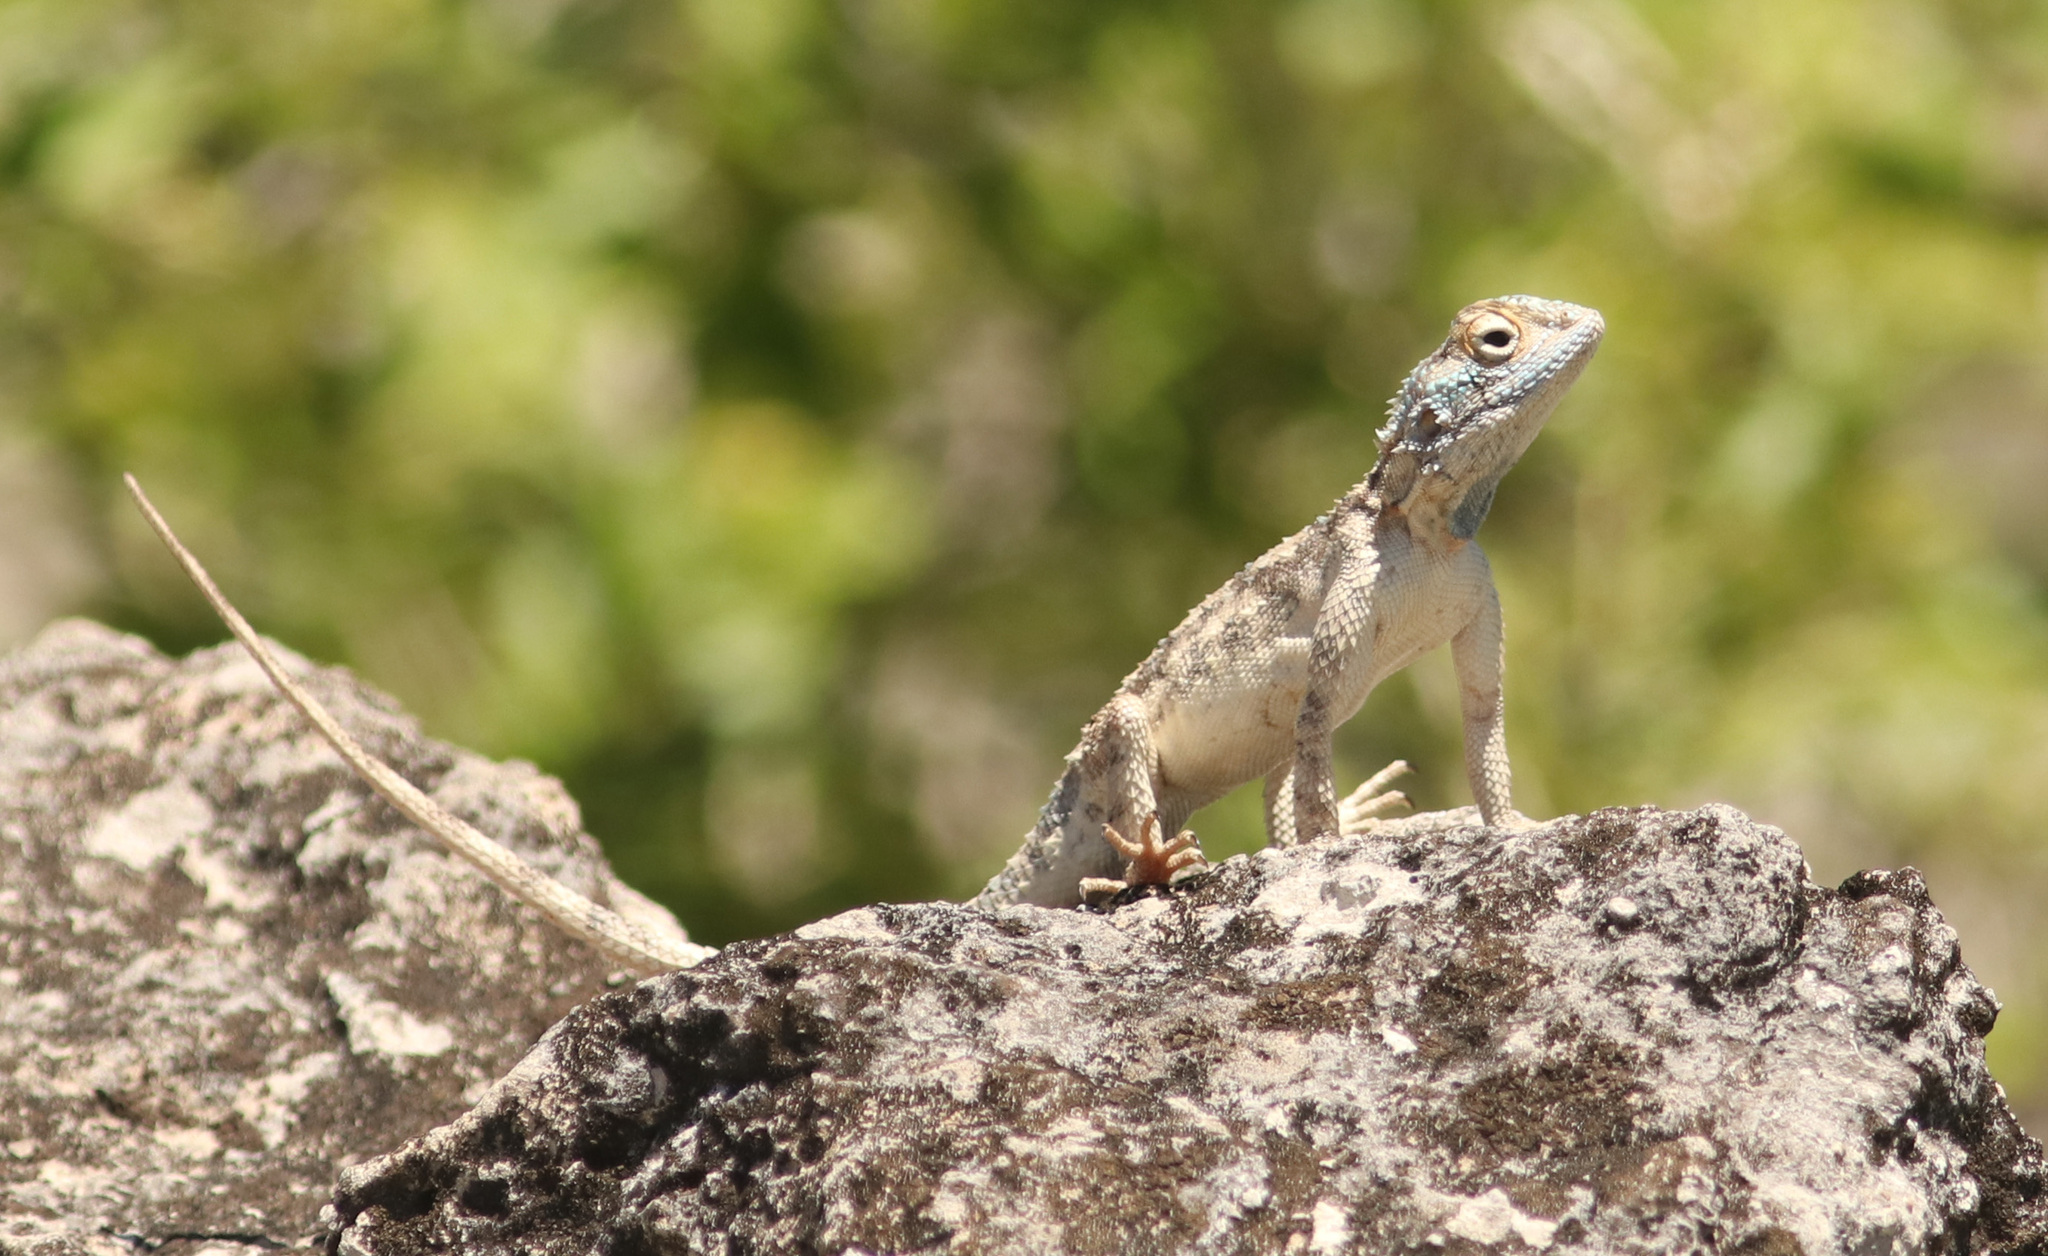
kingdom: Animalia
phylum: Chordata
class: Squamata
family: Agamidae
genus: Agama
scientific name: Agama aculeata
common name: Common ground agama
